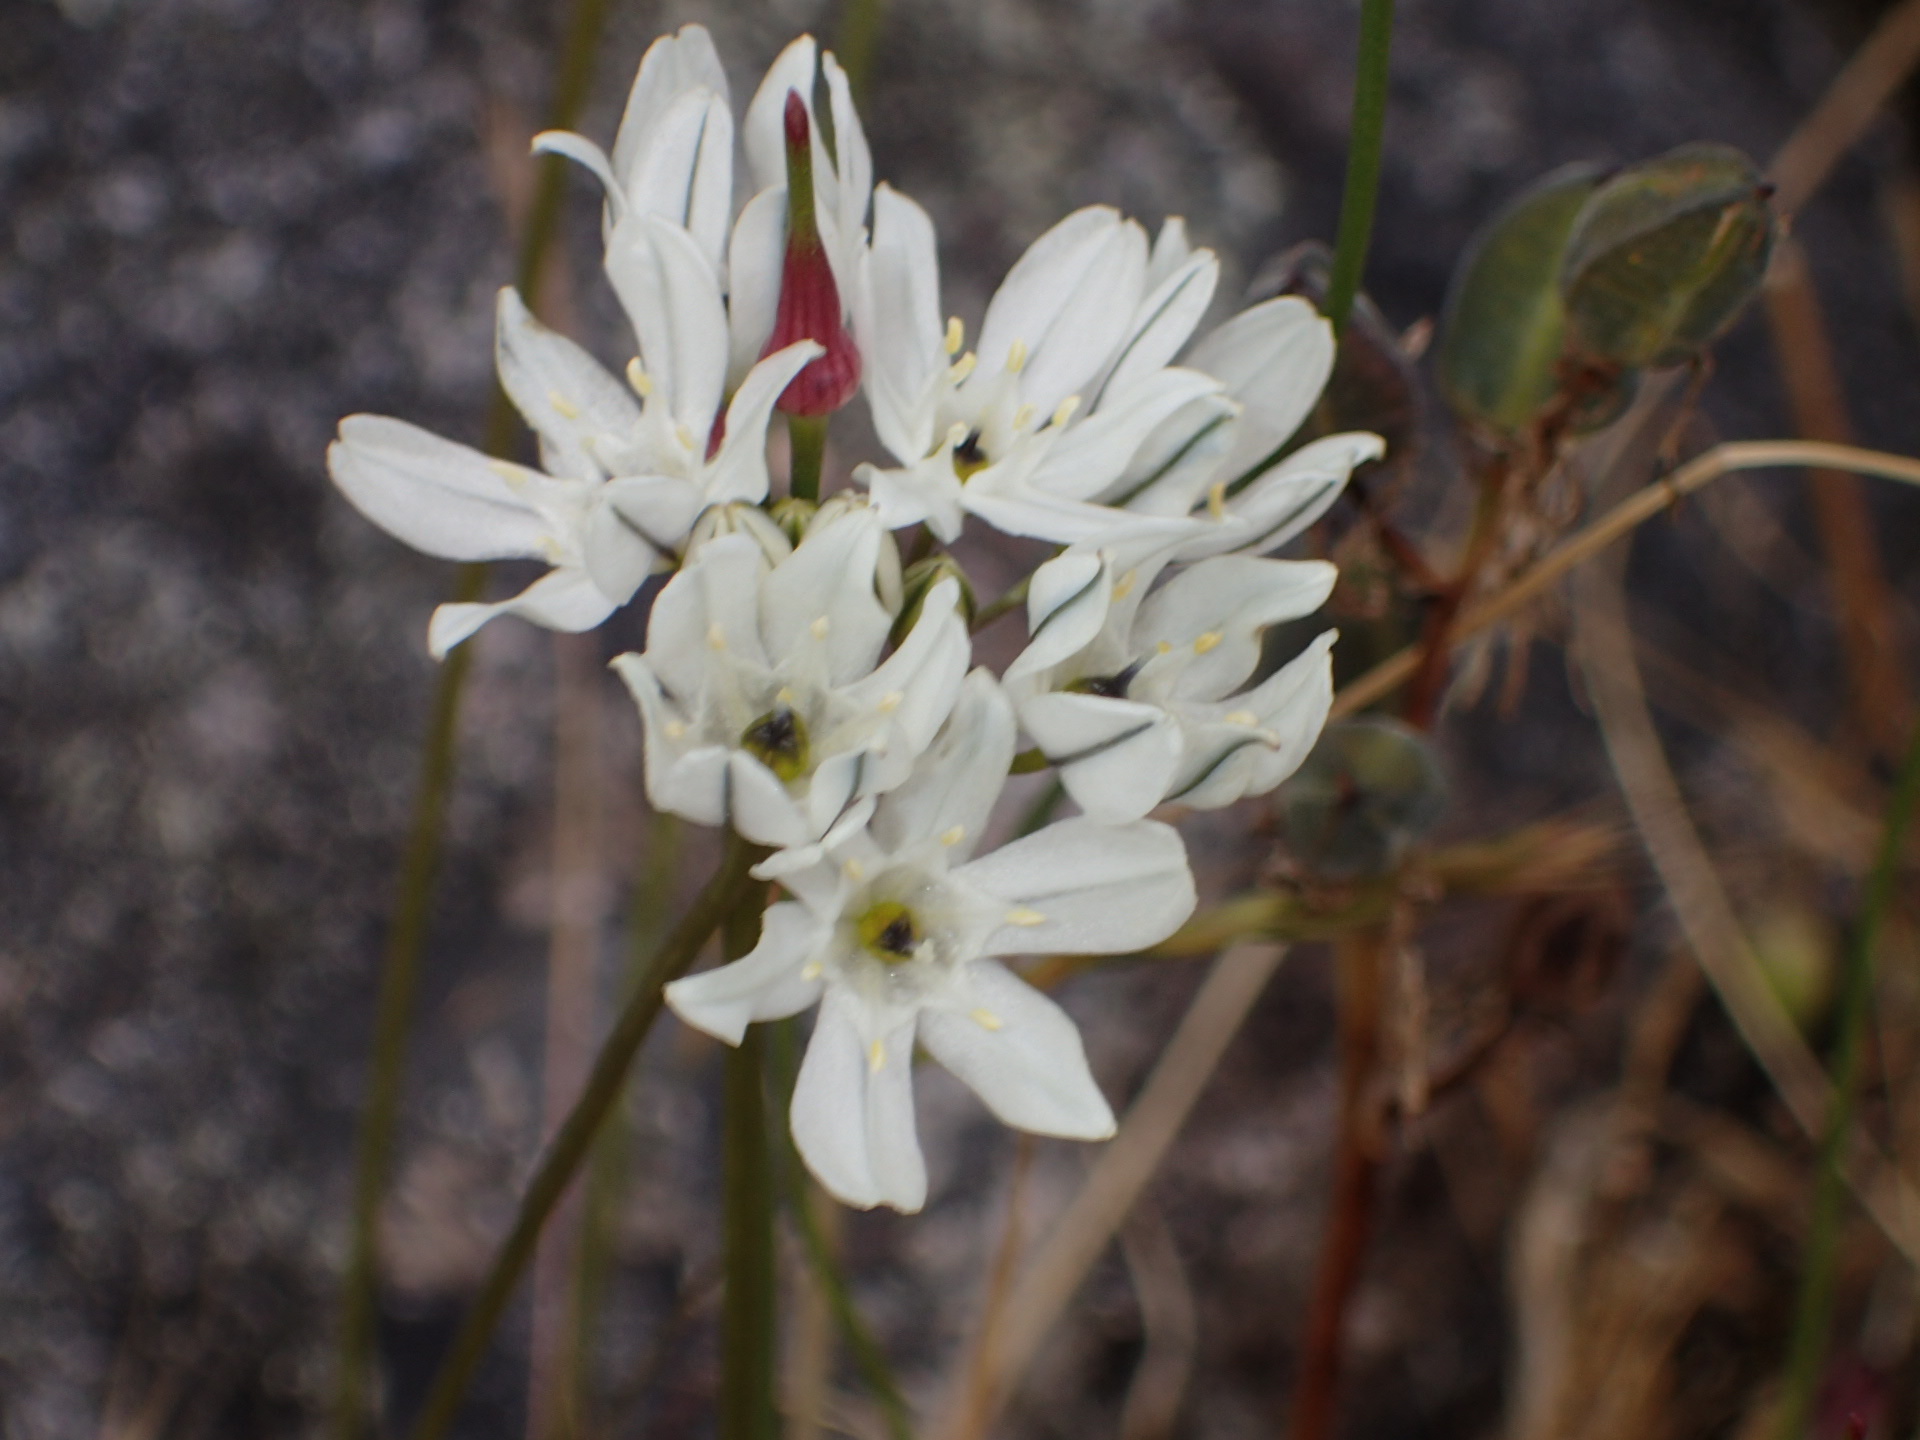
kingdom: Plantae
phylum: Tracheophyta
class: Liliopsida
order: Asparagales
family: Asparagaceae
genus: Triteleia
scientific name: Triteleia hyacinthina
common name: White brodiaea
